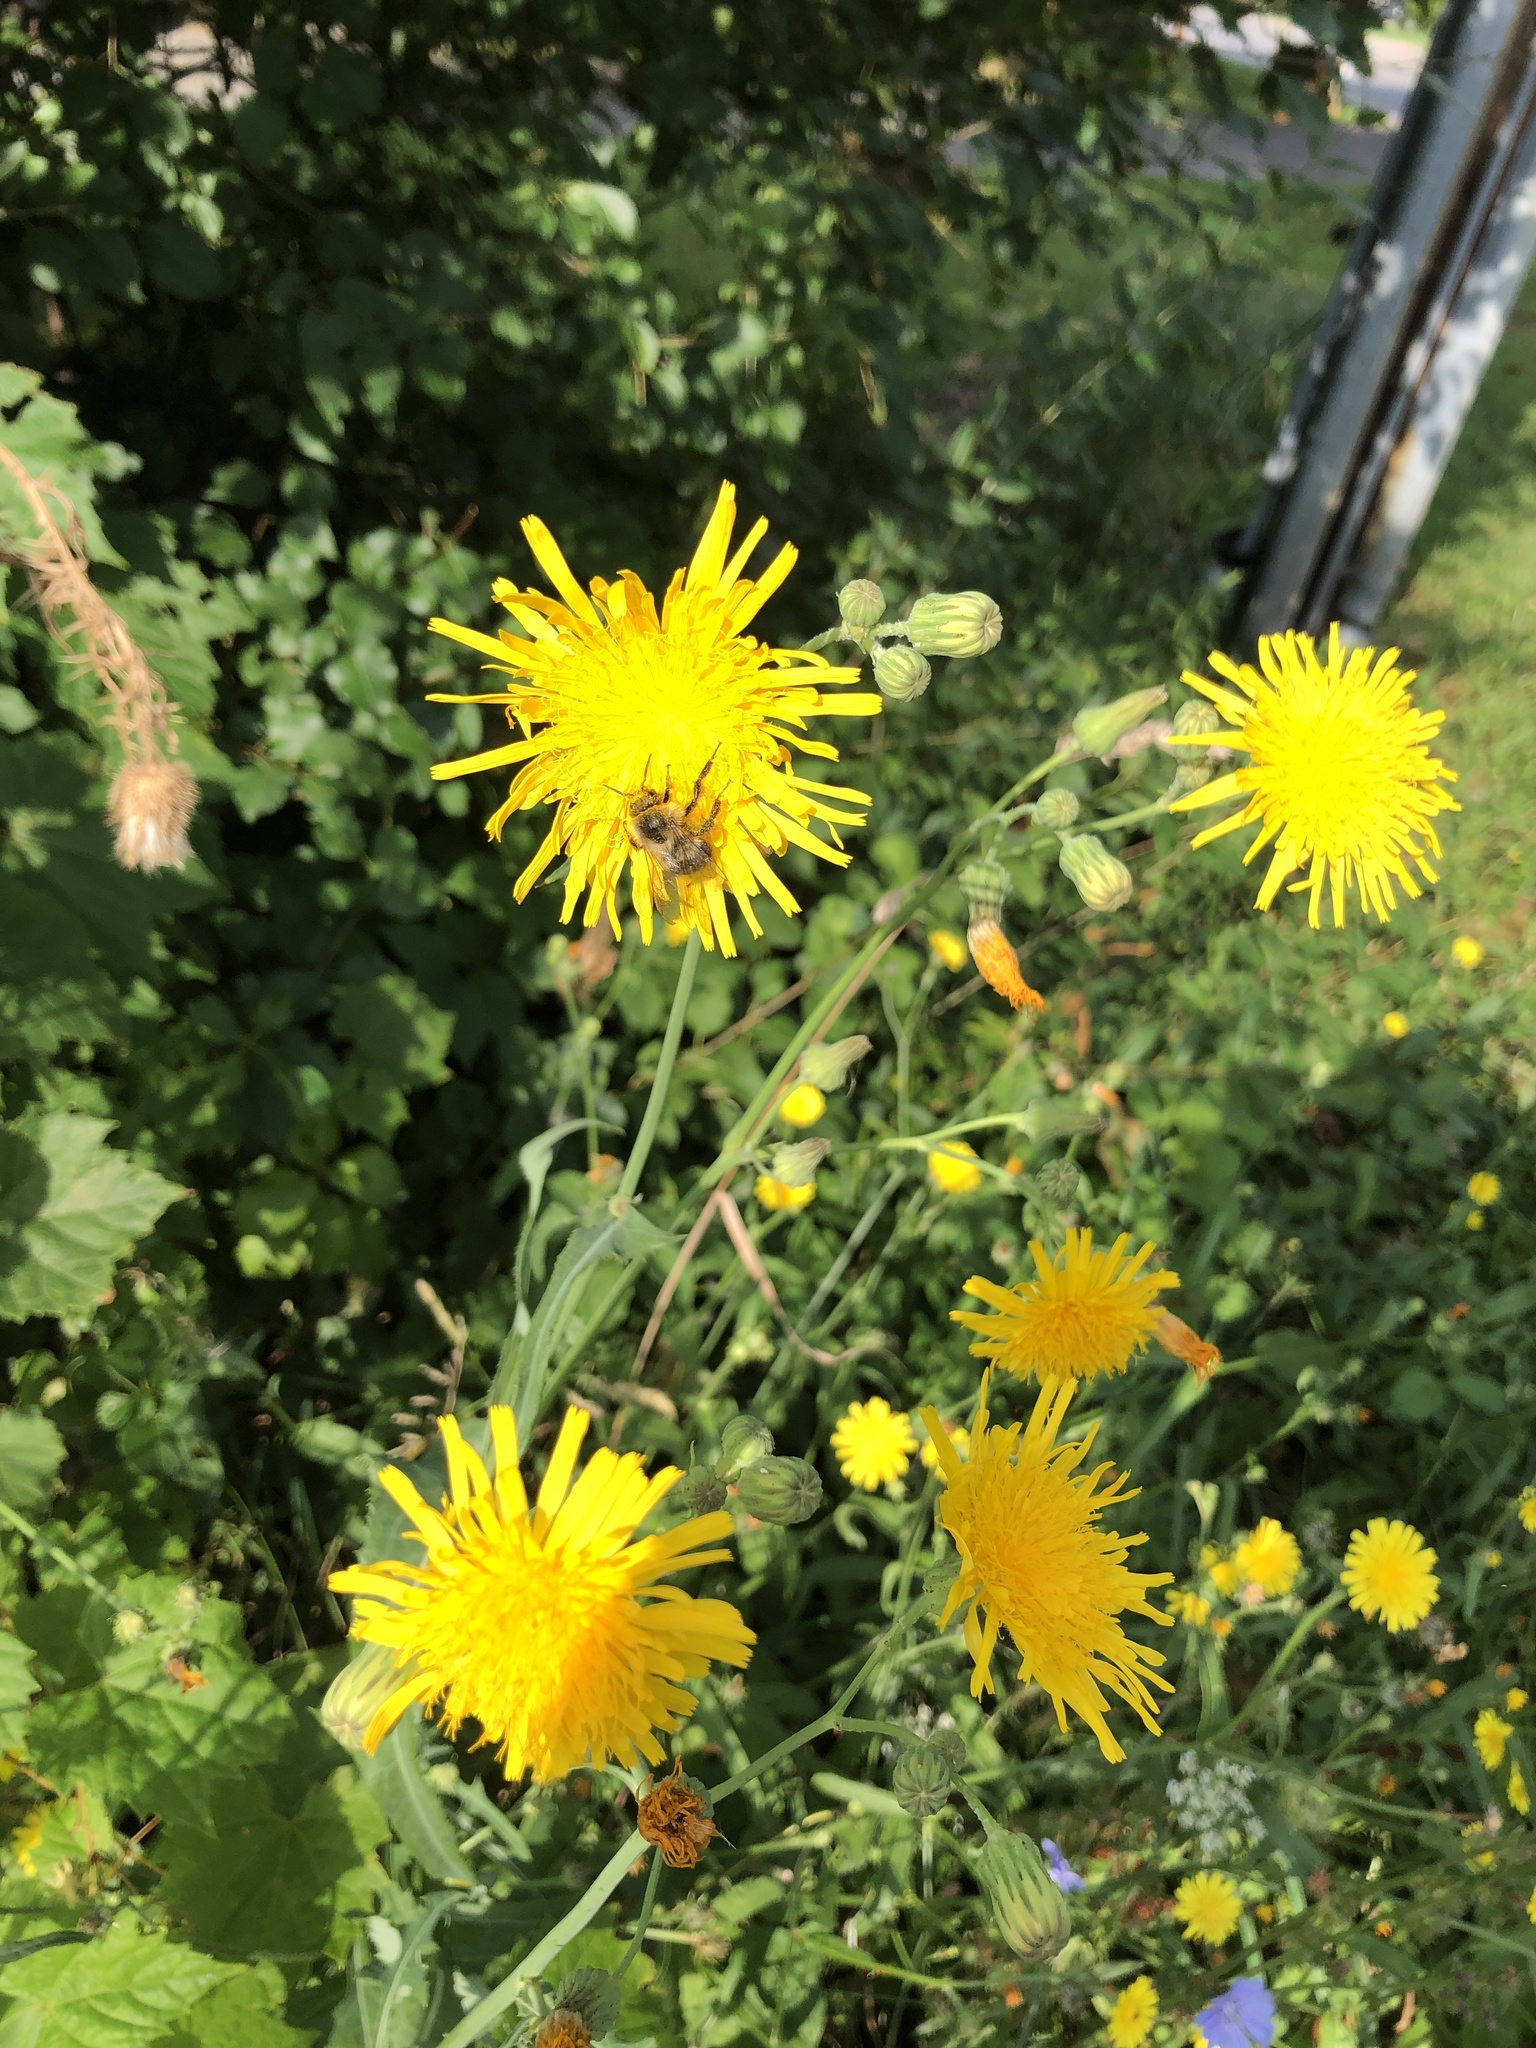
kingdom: Animalia
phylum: Arthropoda
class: Insecta
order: Hymenoptera
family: Apidae
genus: Bombus
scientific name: Bombus impatiens
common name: Common eastern bumble bee
